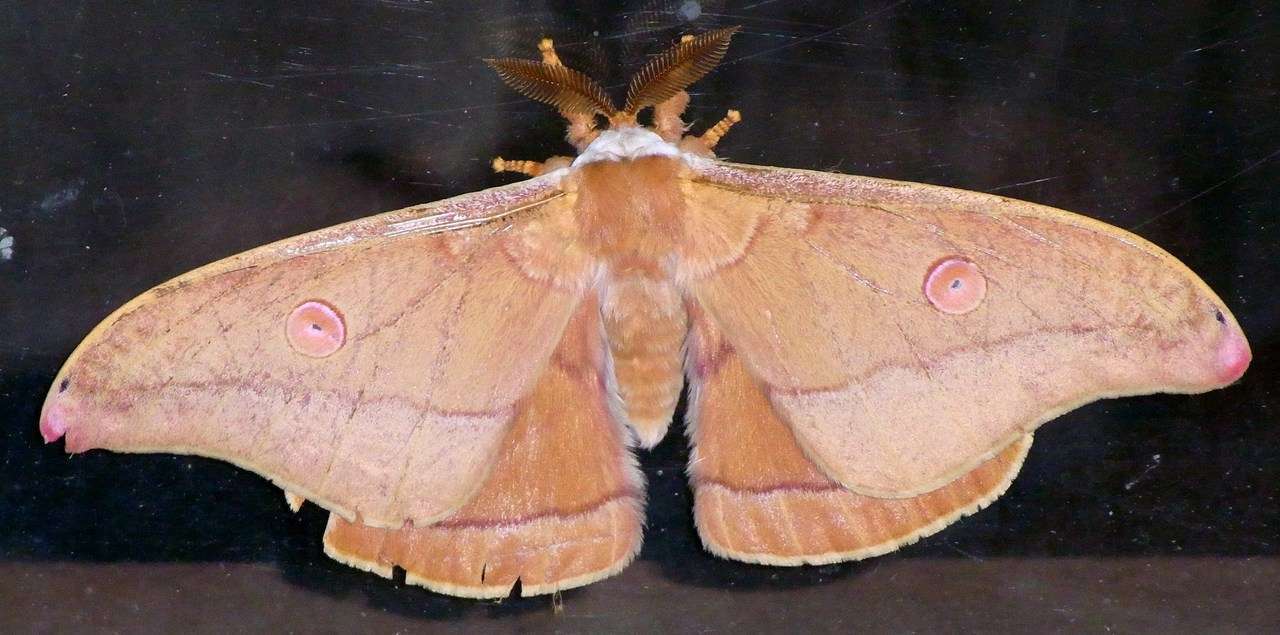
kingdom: Animalia
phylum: Arthropoda
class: Insecta
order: Lepidoptera
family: Saturniidae
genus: Opodiphthera
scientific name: Opodiphthera
